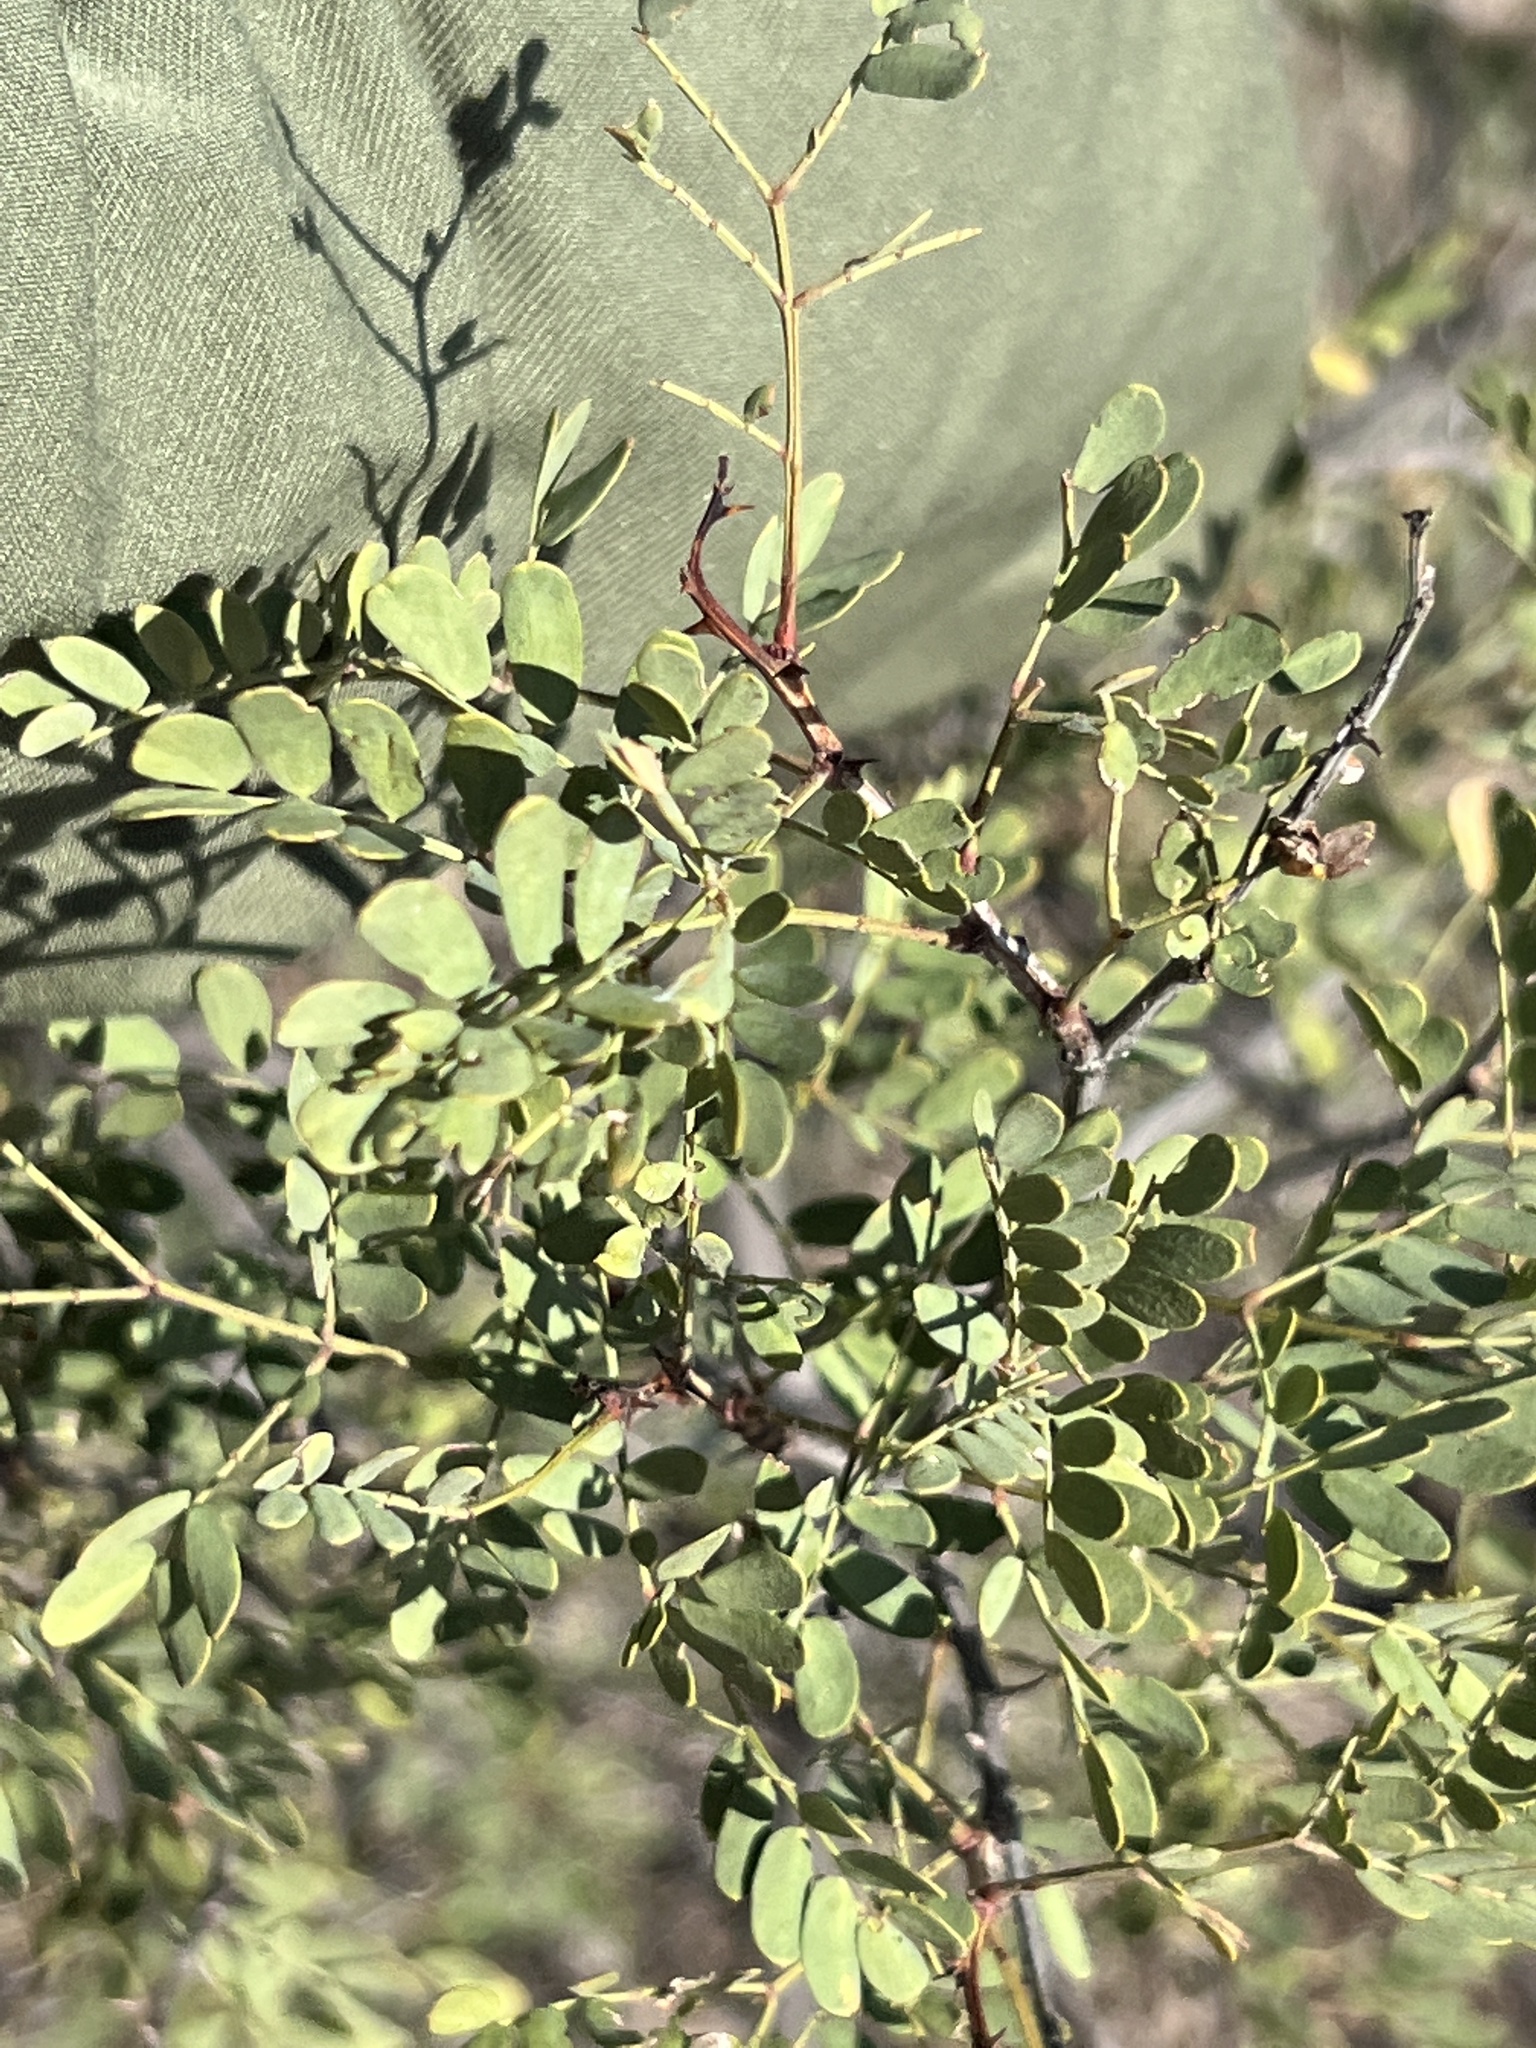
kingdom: Plantae
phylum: Tracheophyta
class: Magnoliopsida
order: Fabales
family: Fabaceae
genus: Senegalia
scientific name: Senegalia roemeriana
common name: Roemer's acacia
